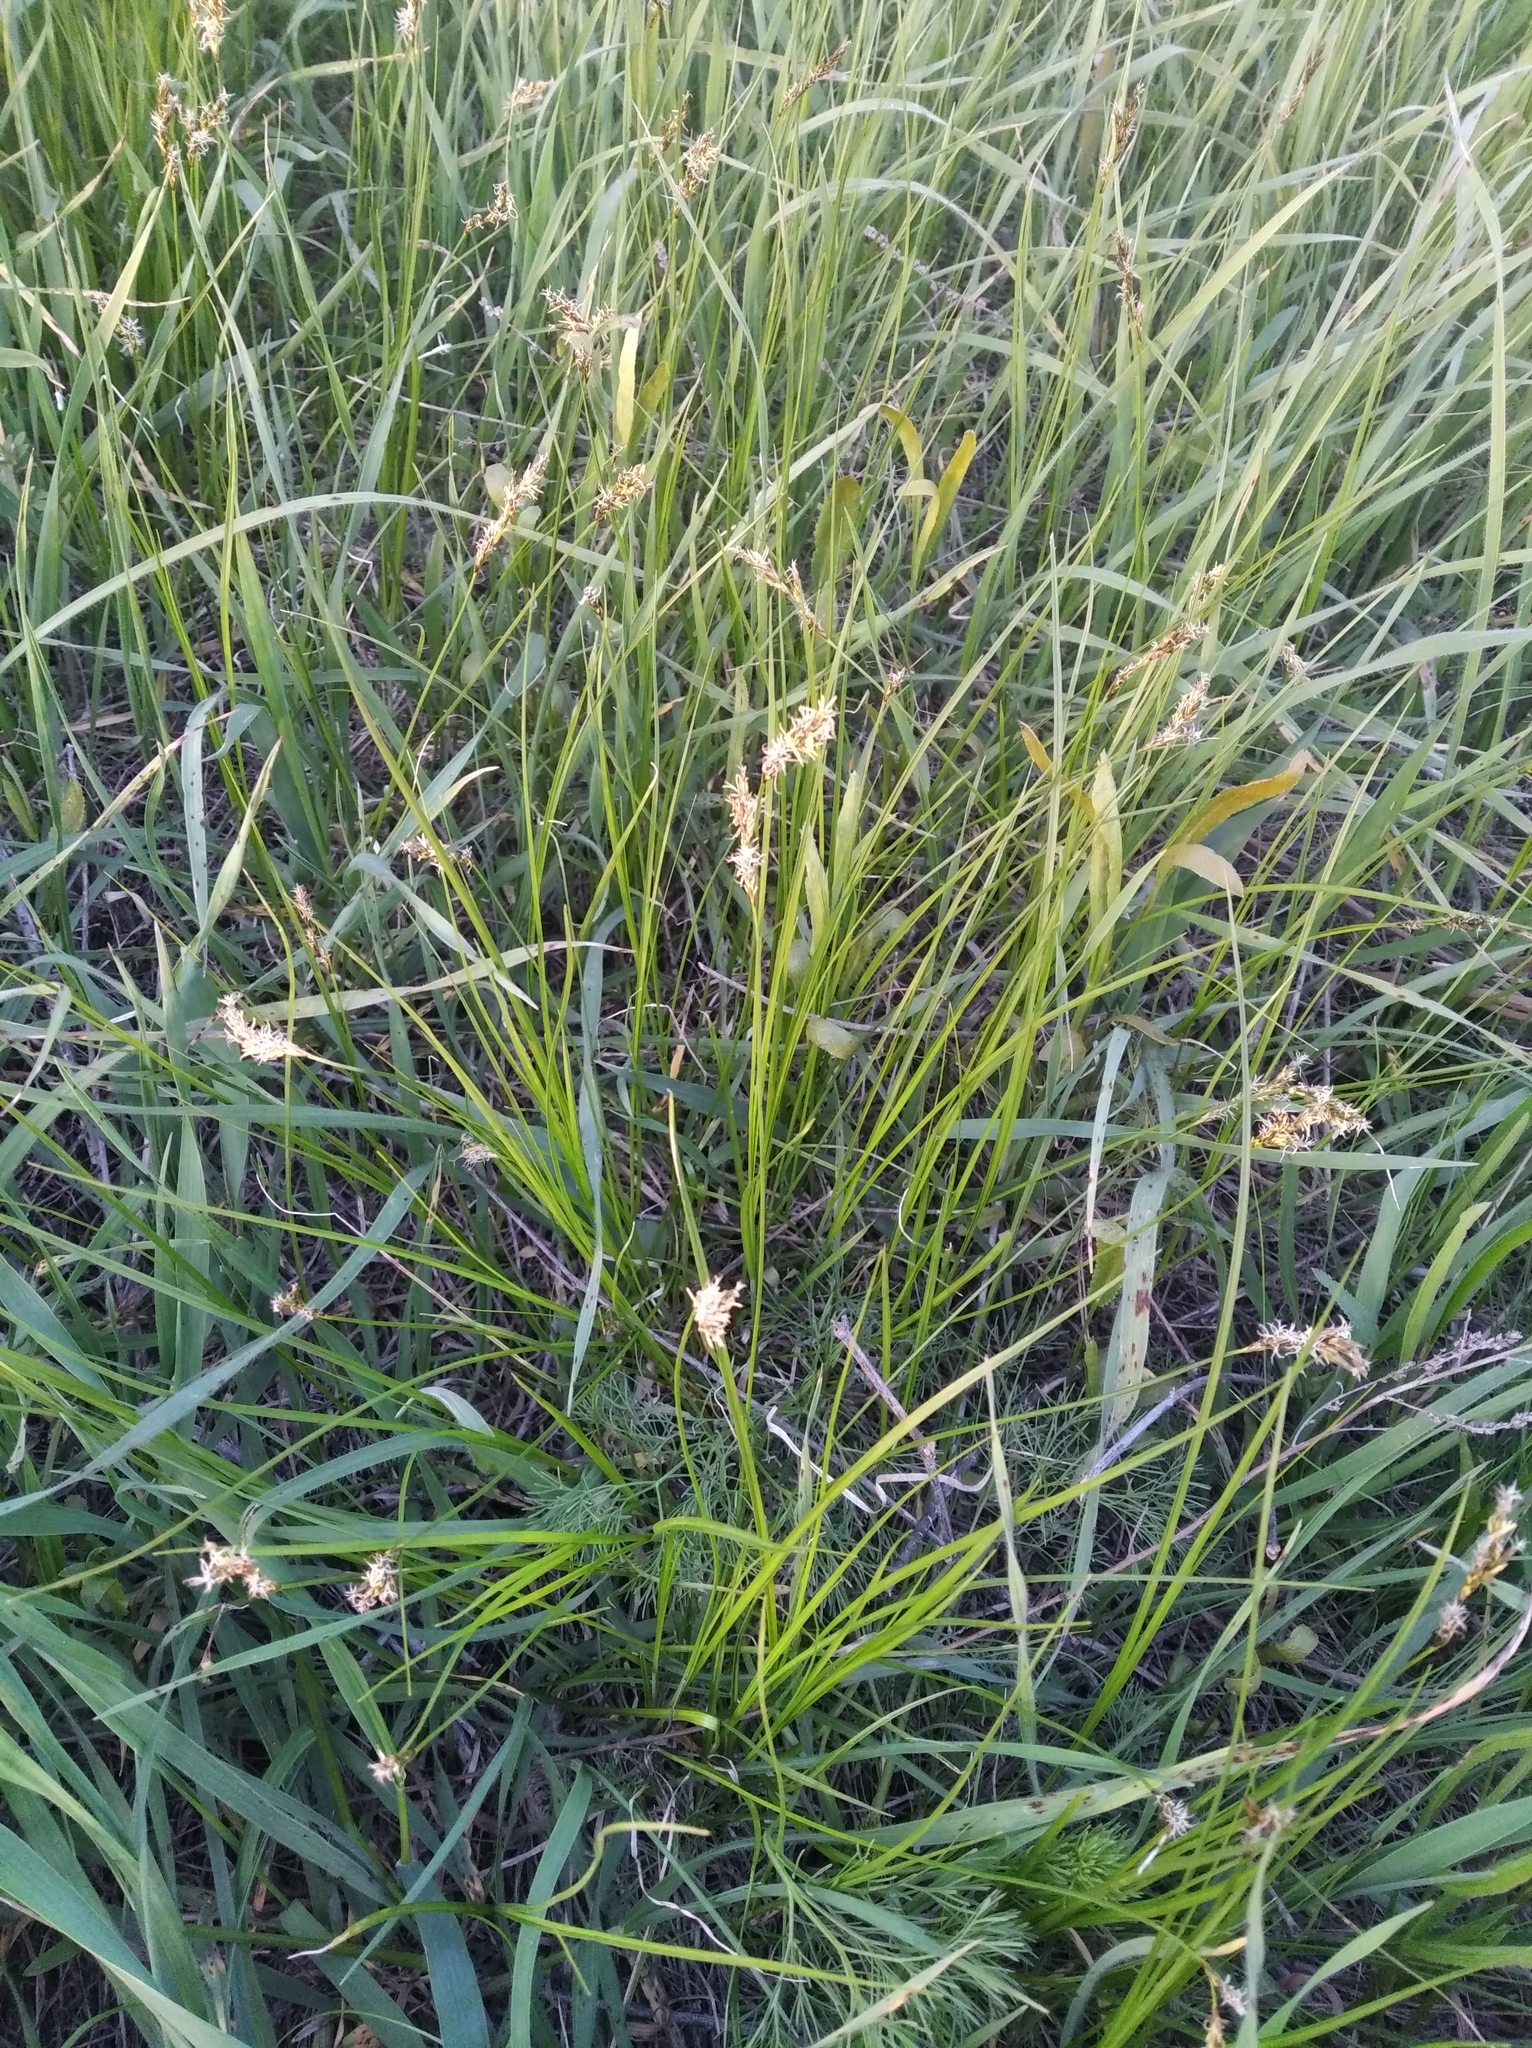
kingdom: Plantae
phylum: Tracheophyta
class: Liliopsida
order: Poales
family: Cyperaceae
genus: Carex
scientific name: Carex praecox
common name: Early sedge
